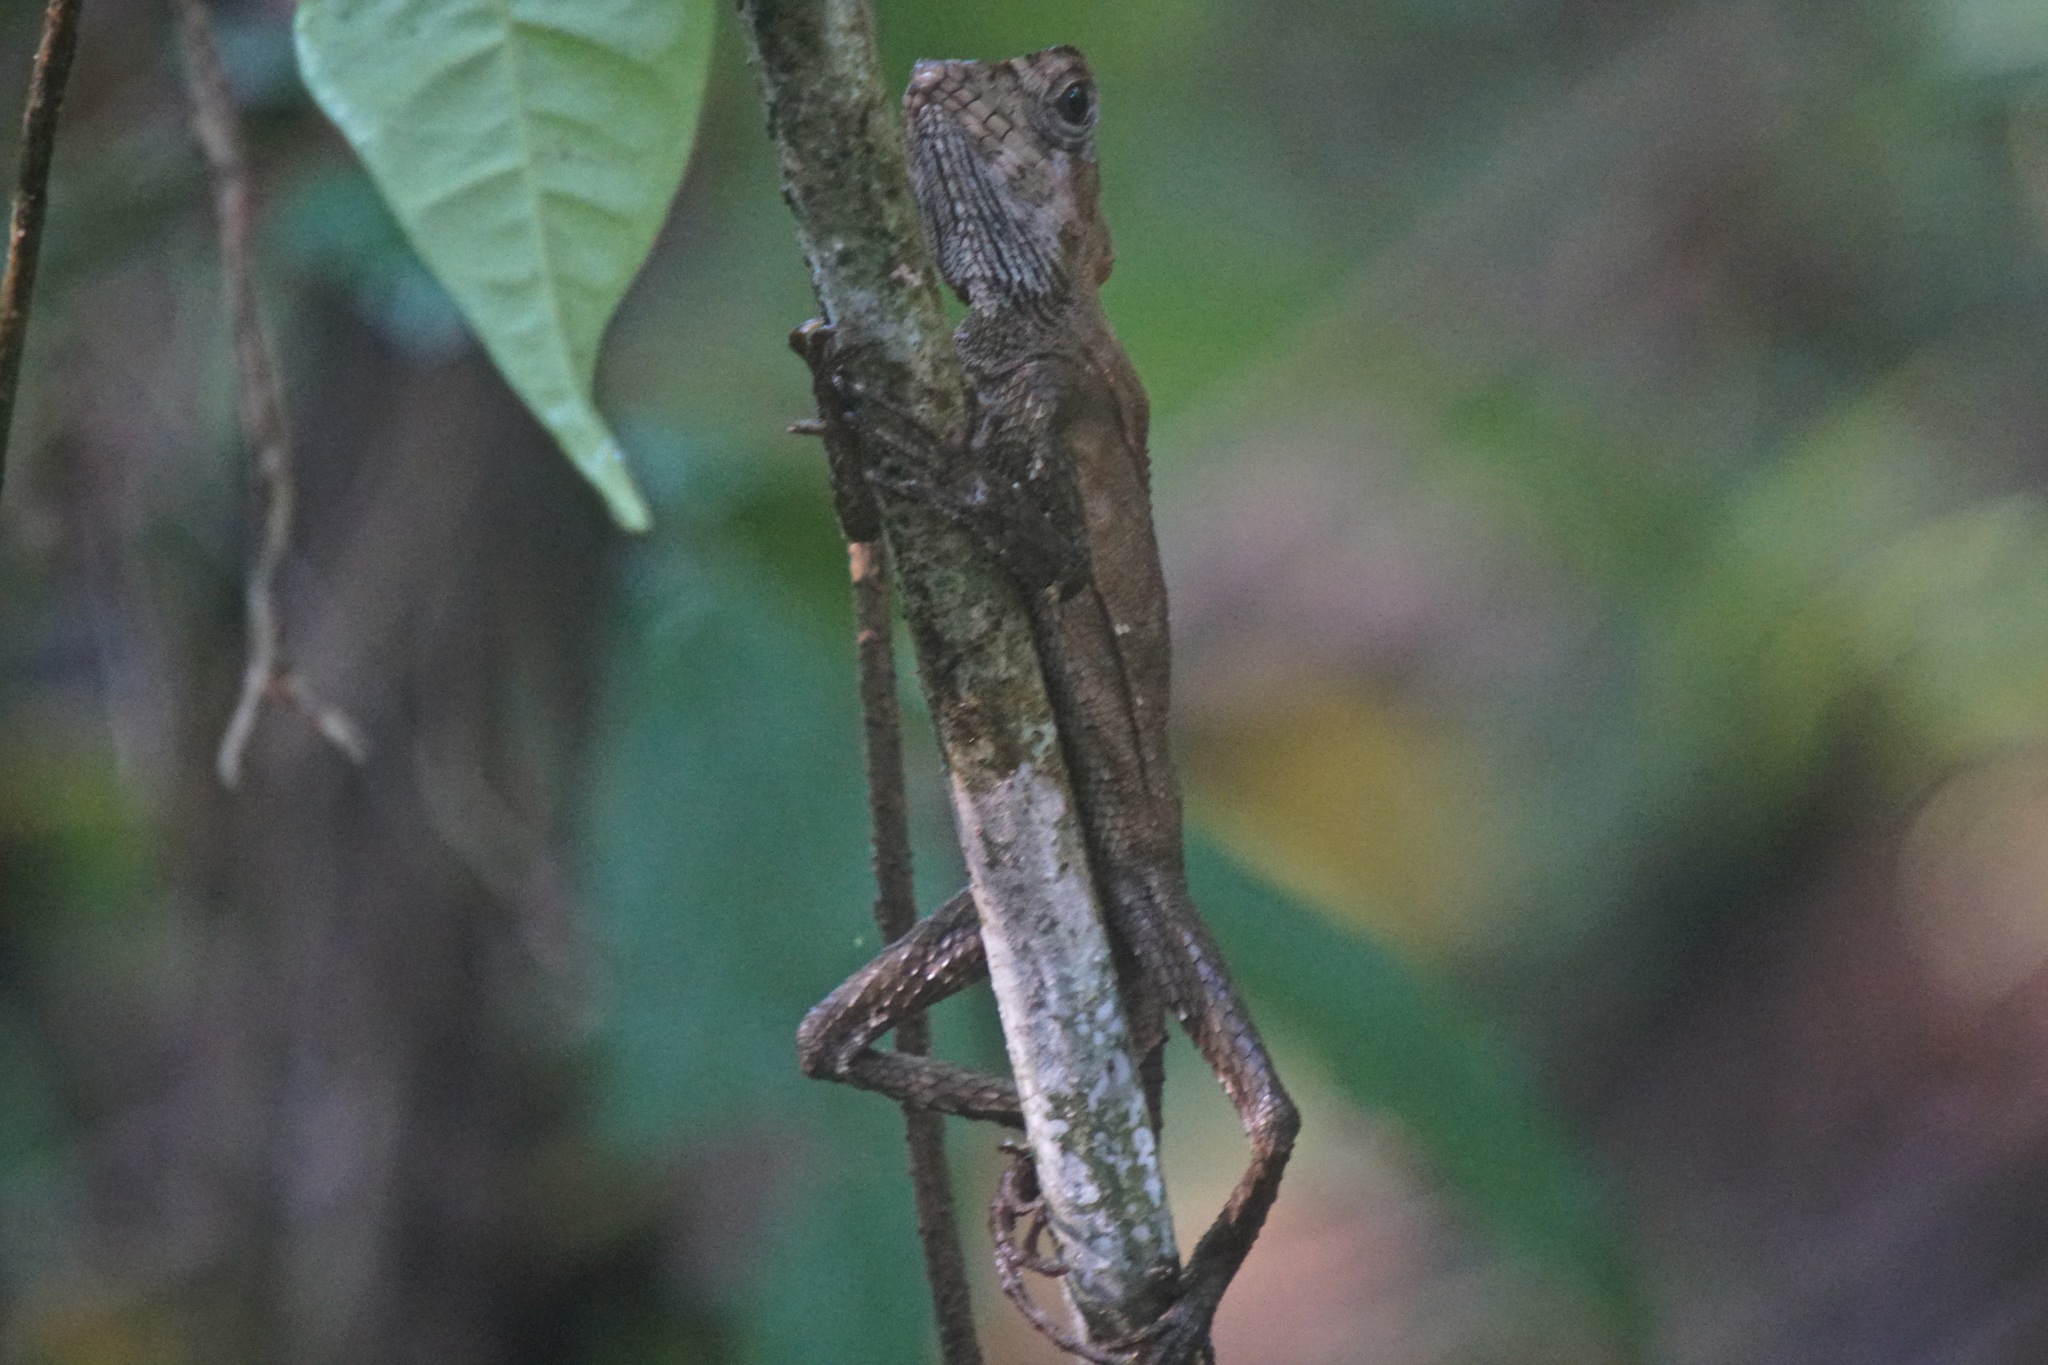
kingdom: Animalia
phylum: Chordata
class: Squamata
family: Corytophanidae
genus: Corytophanes
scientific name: Corytophanes cristatus
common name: Smooth helmeted iguana
